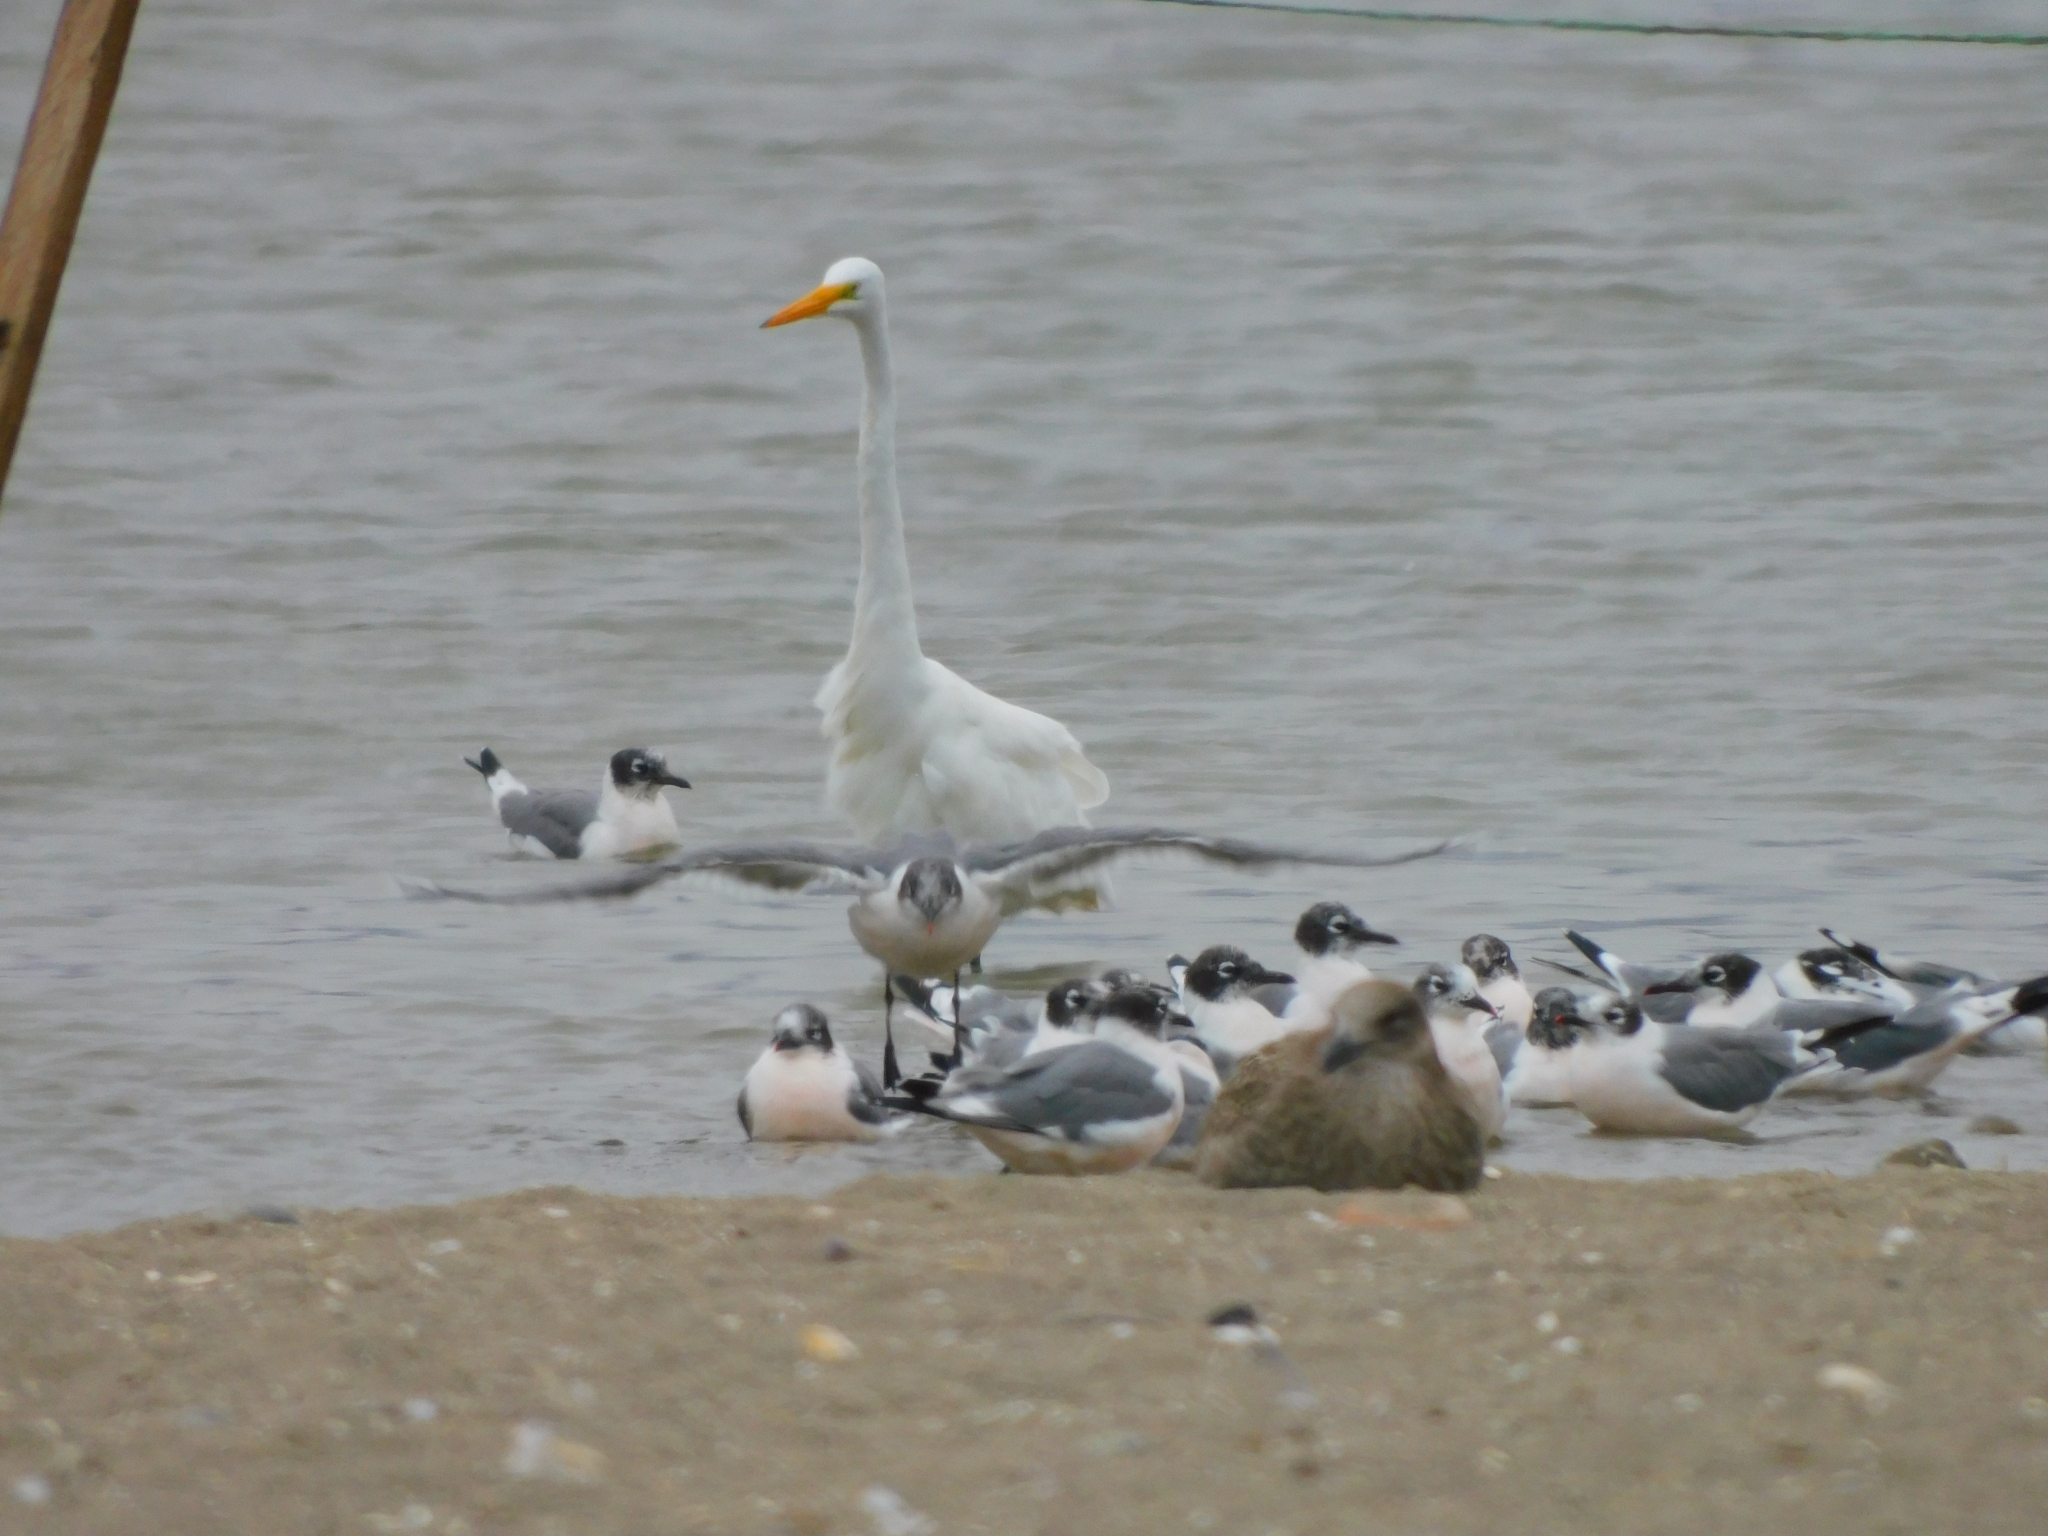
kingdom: Animalia
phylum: Chordata
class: Aves
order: Pelecaniformes
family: Ardeidae
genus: Ardea
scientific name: Ardea alba
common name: Great egret
